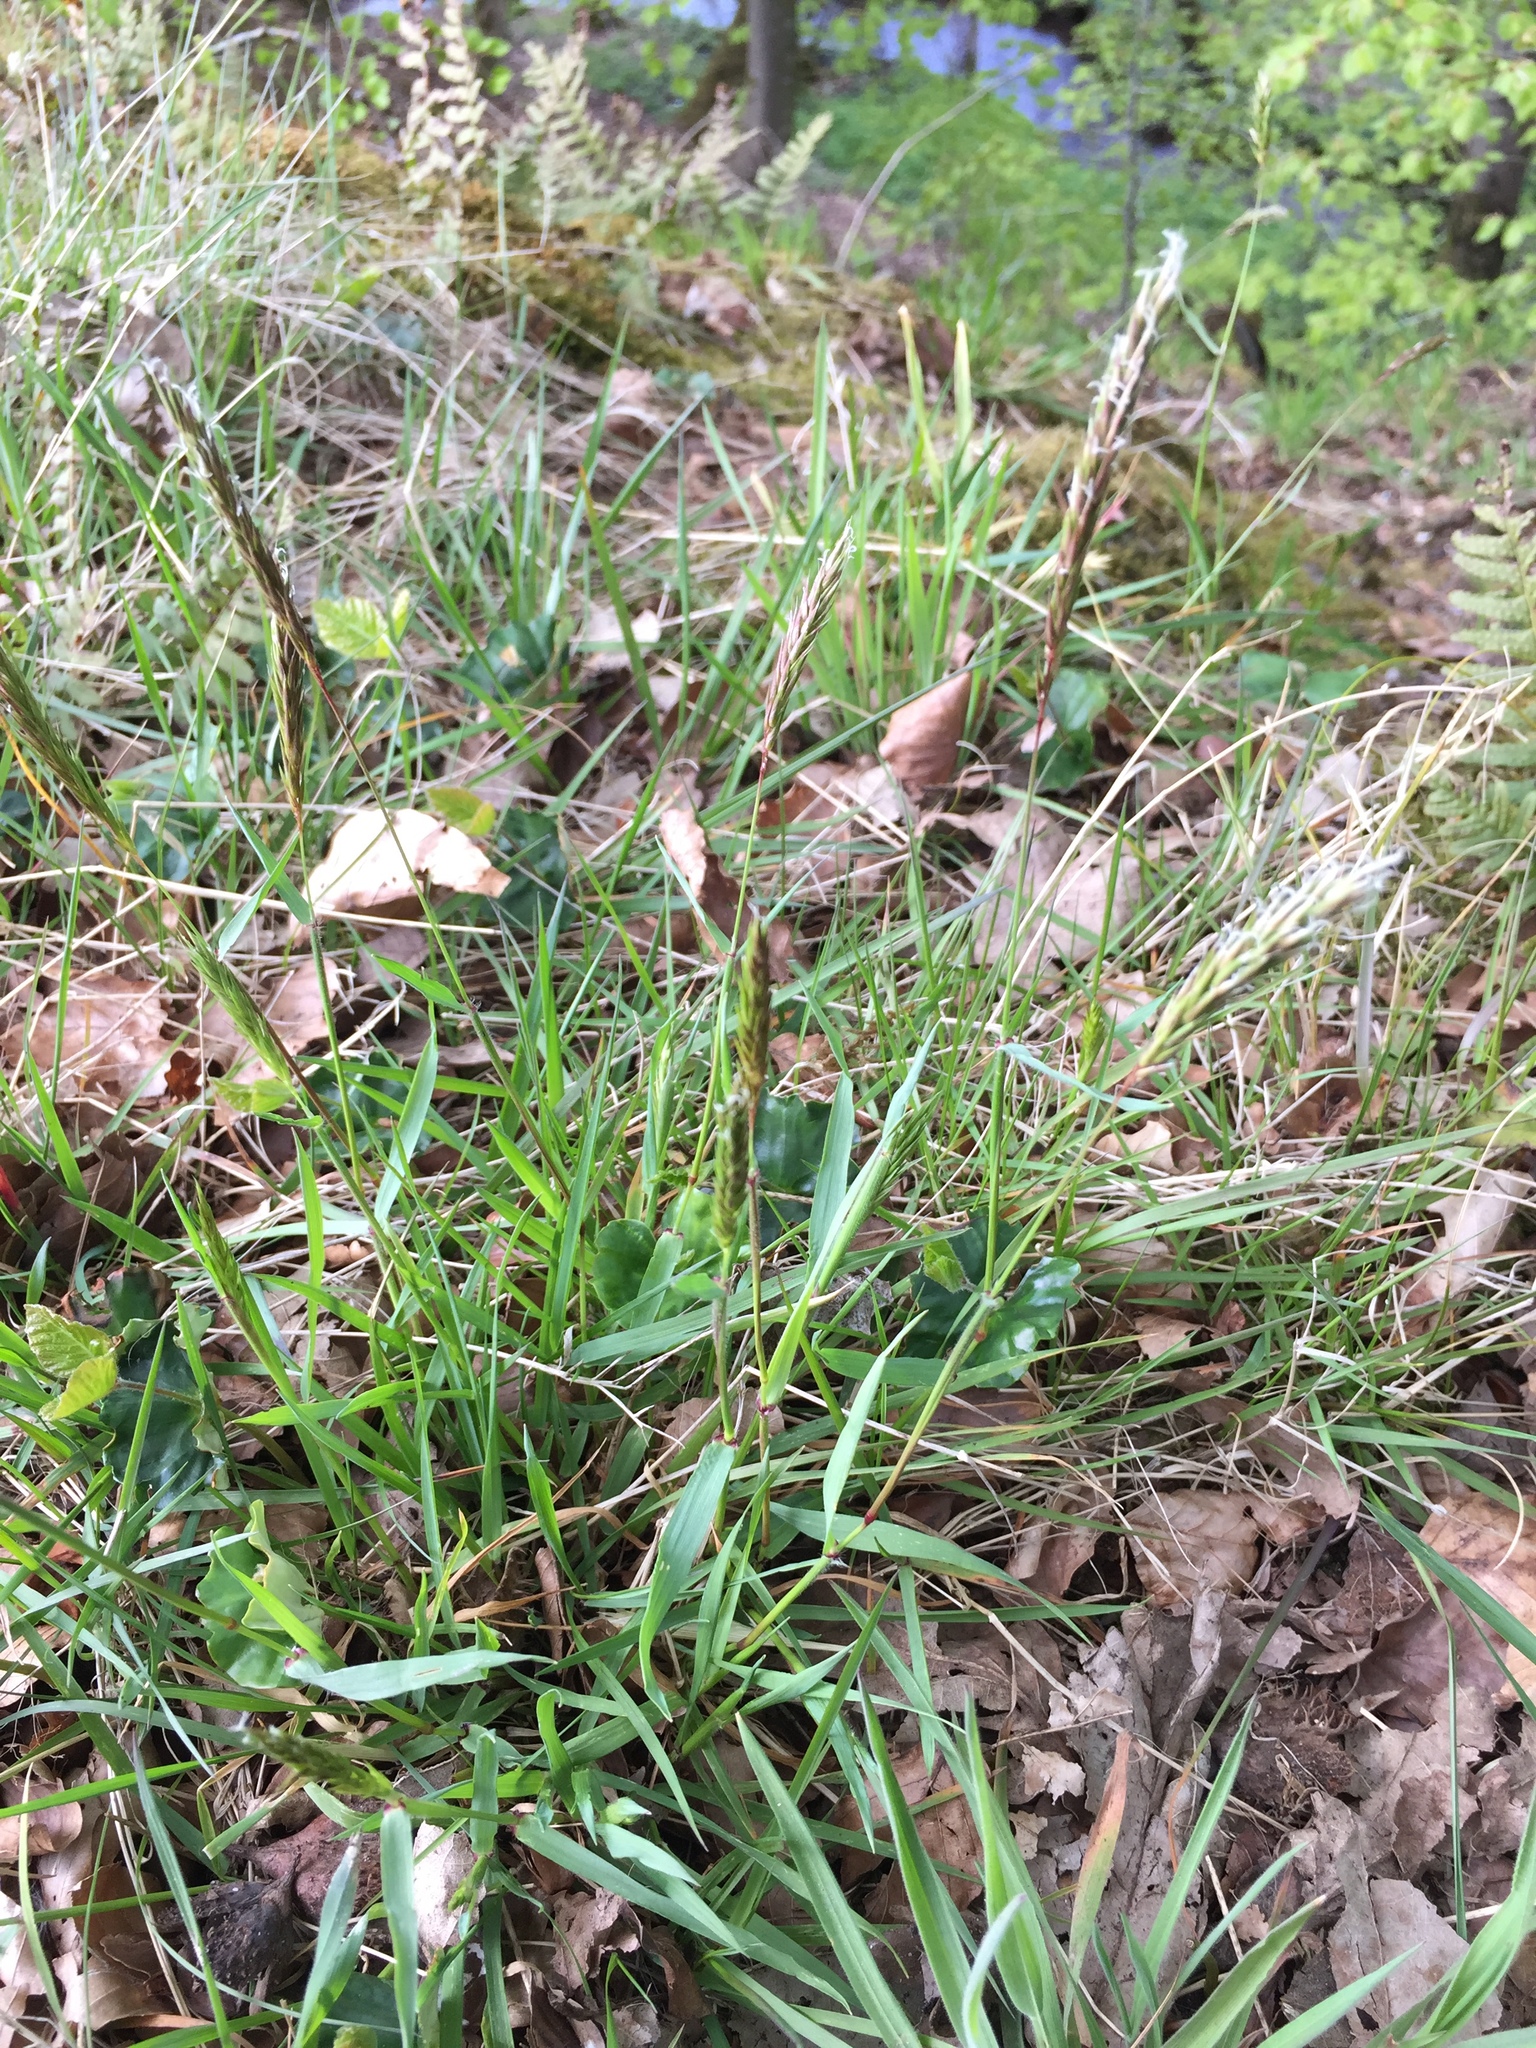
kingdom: Plantae
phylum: Tracheophyta
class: Liliopsida
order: Poales
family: Poaceae
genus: Anthoxanthum
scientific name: Anthoxanthum odoratum
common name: Sweet vernalgrass
